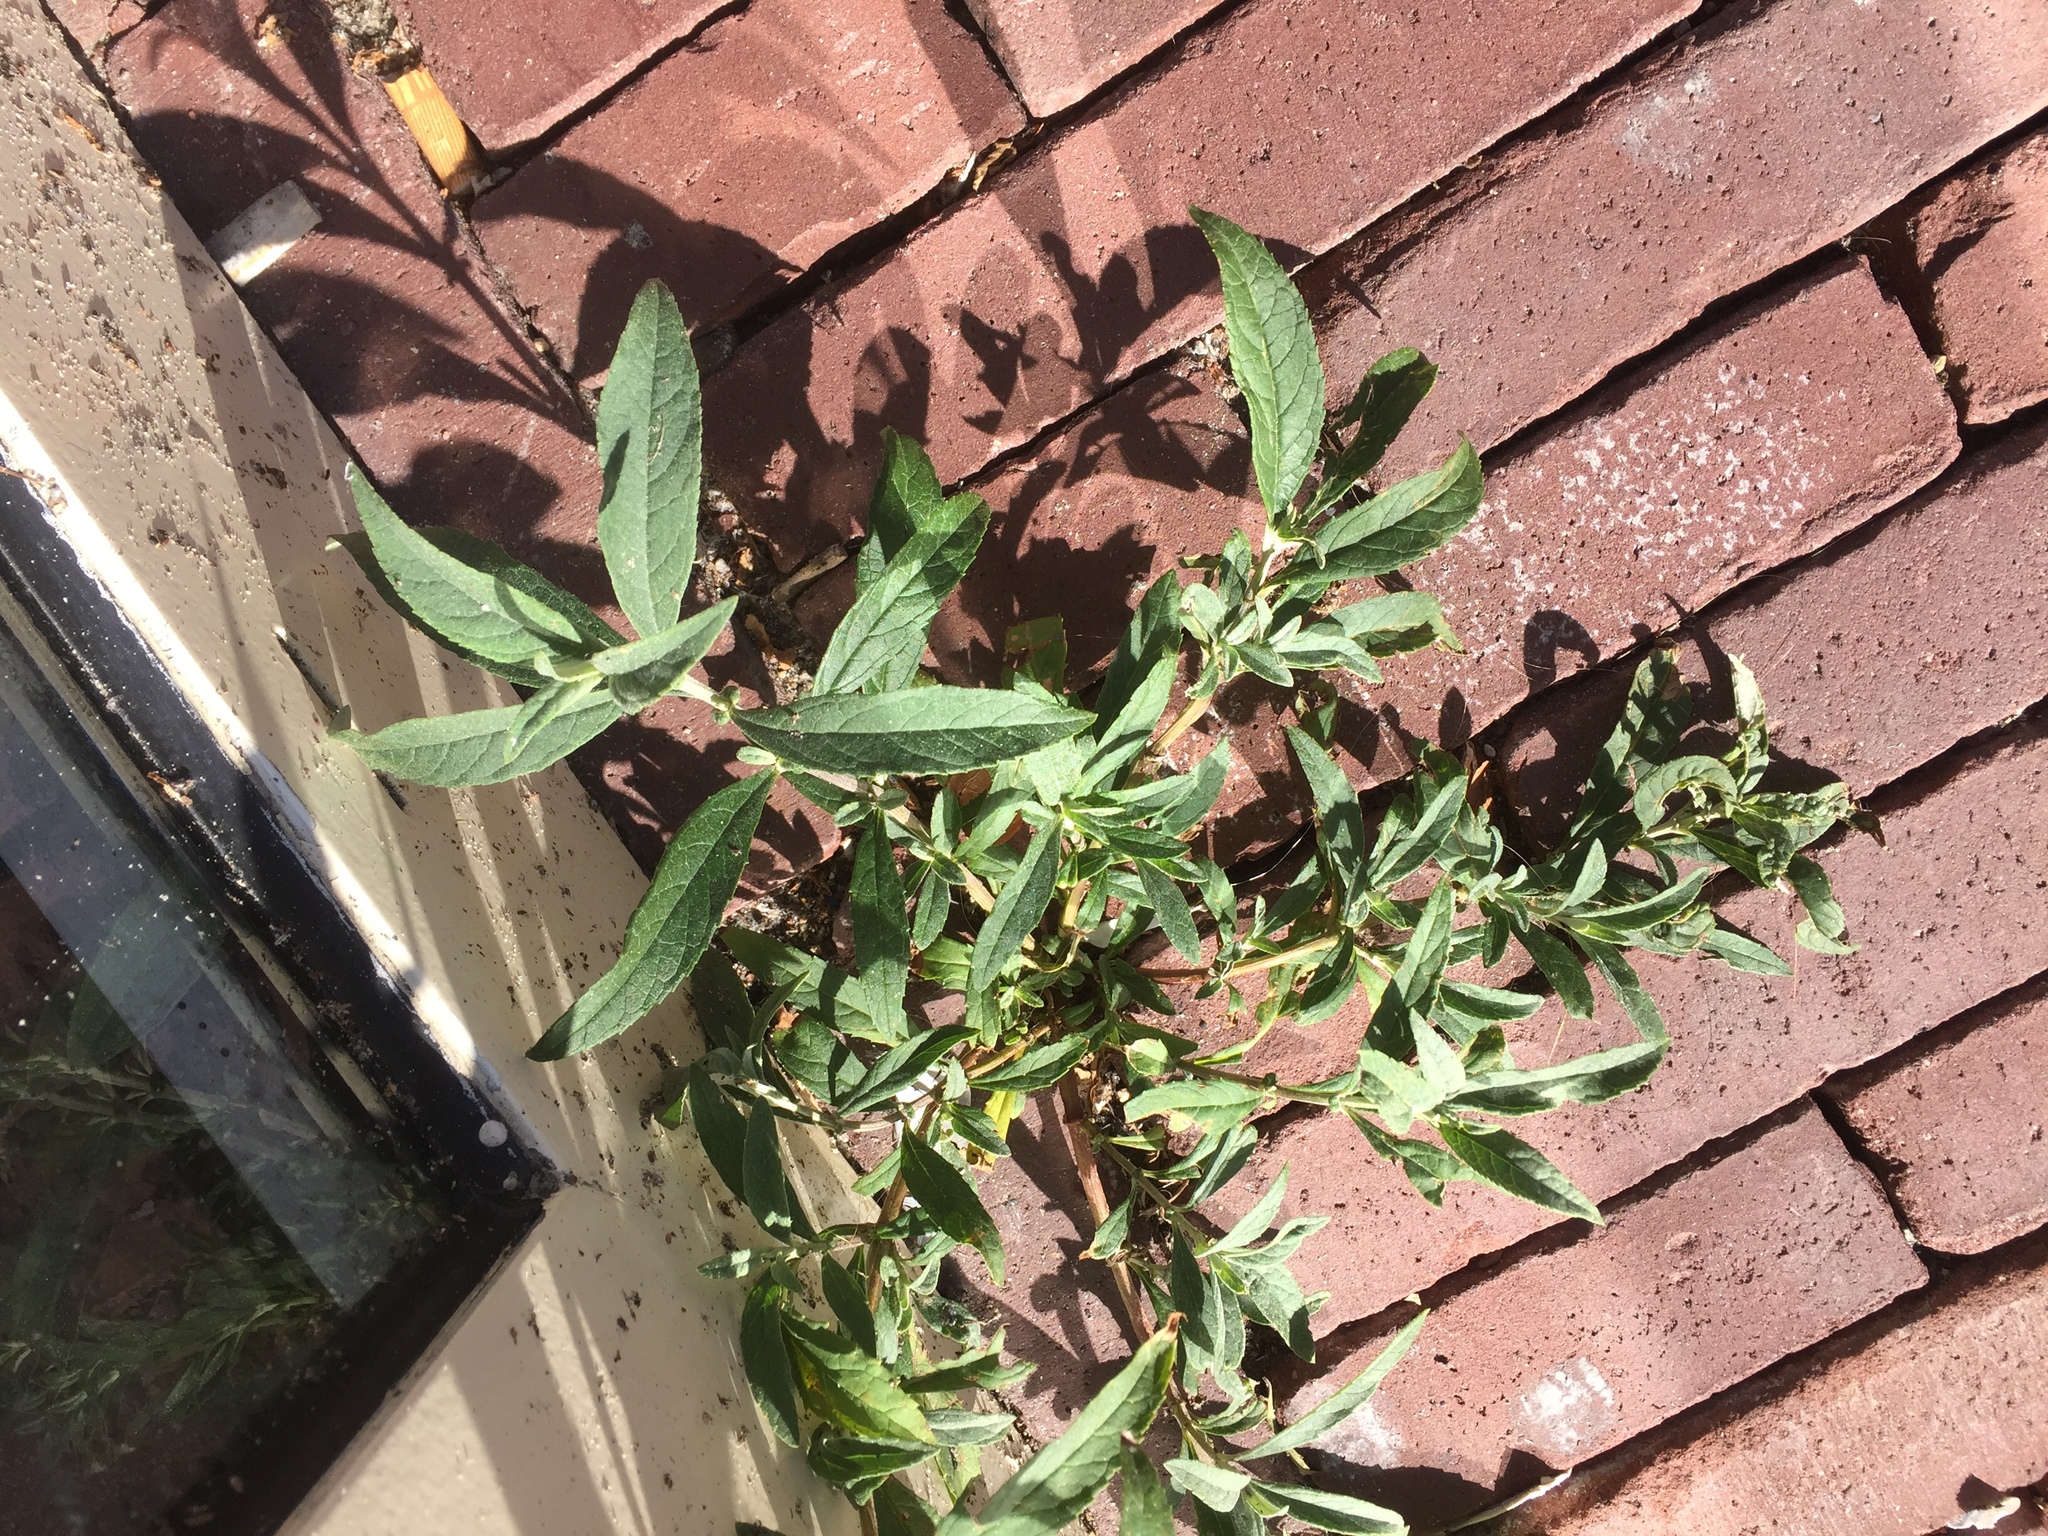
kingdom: Plantae
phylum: Tracheophyta
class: Magnoliopsida
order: Lamiales
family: Scrophulariaceae
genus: Buddleja
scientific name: Buddleja davidii
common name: Butterfly-bush
